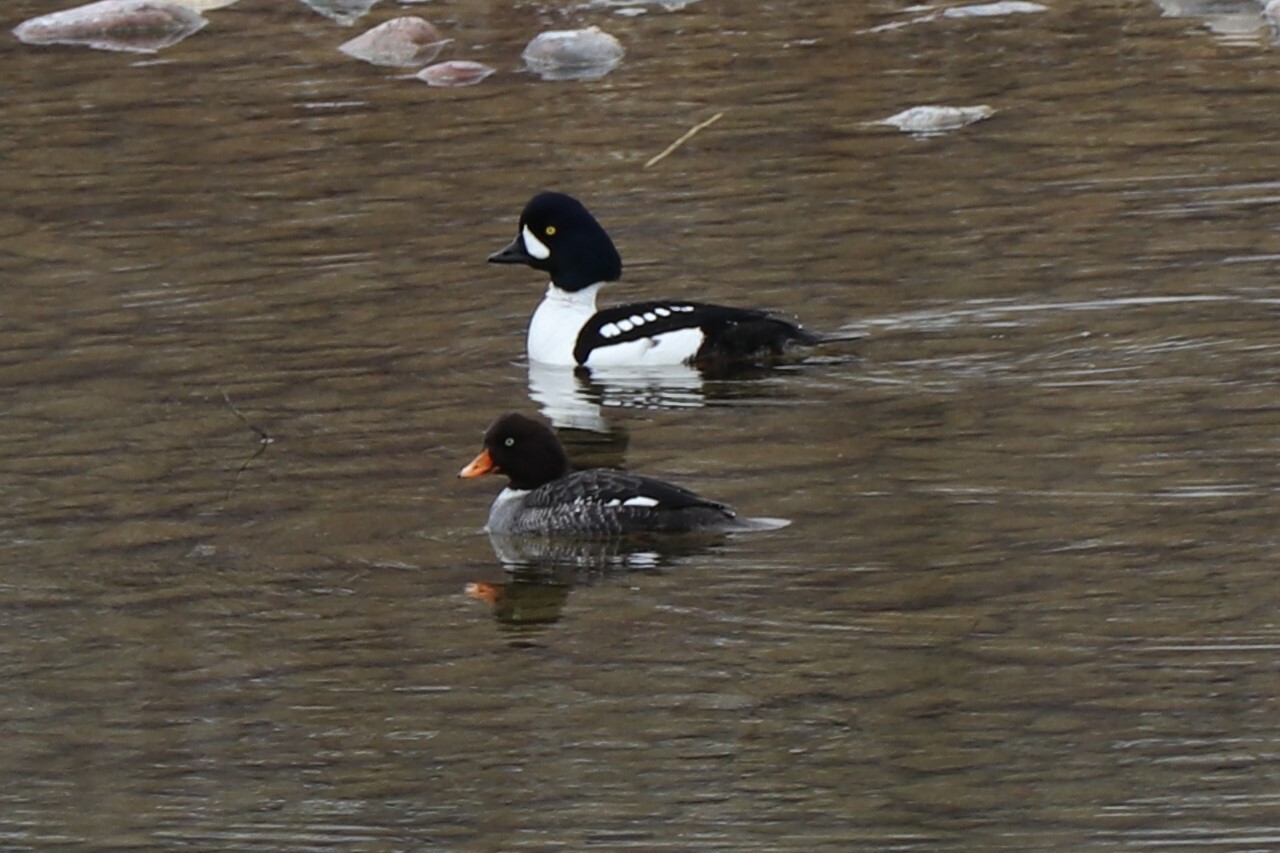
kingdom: Animalia
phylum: Chordata
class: Aves
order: Anseriformes
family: Anatidae
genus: Bucephala
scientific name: Bucephala islandica
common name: Barrow's goldeneye
